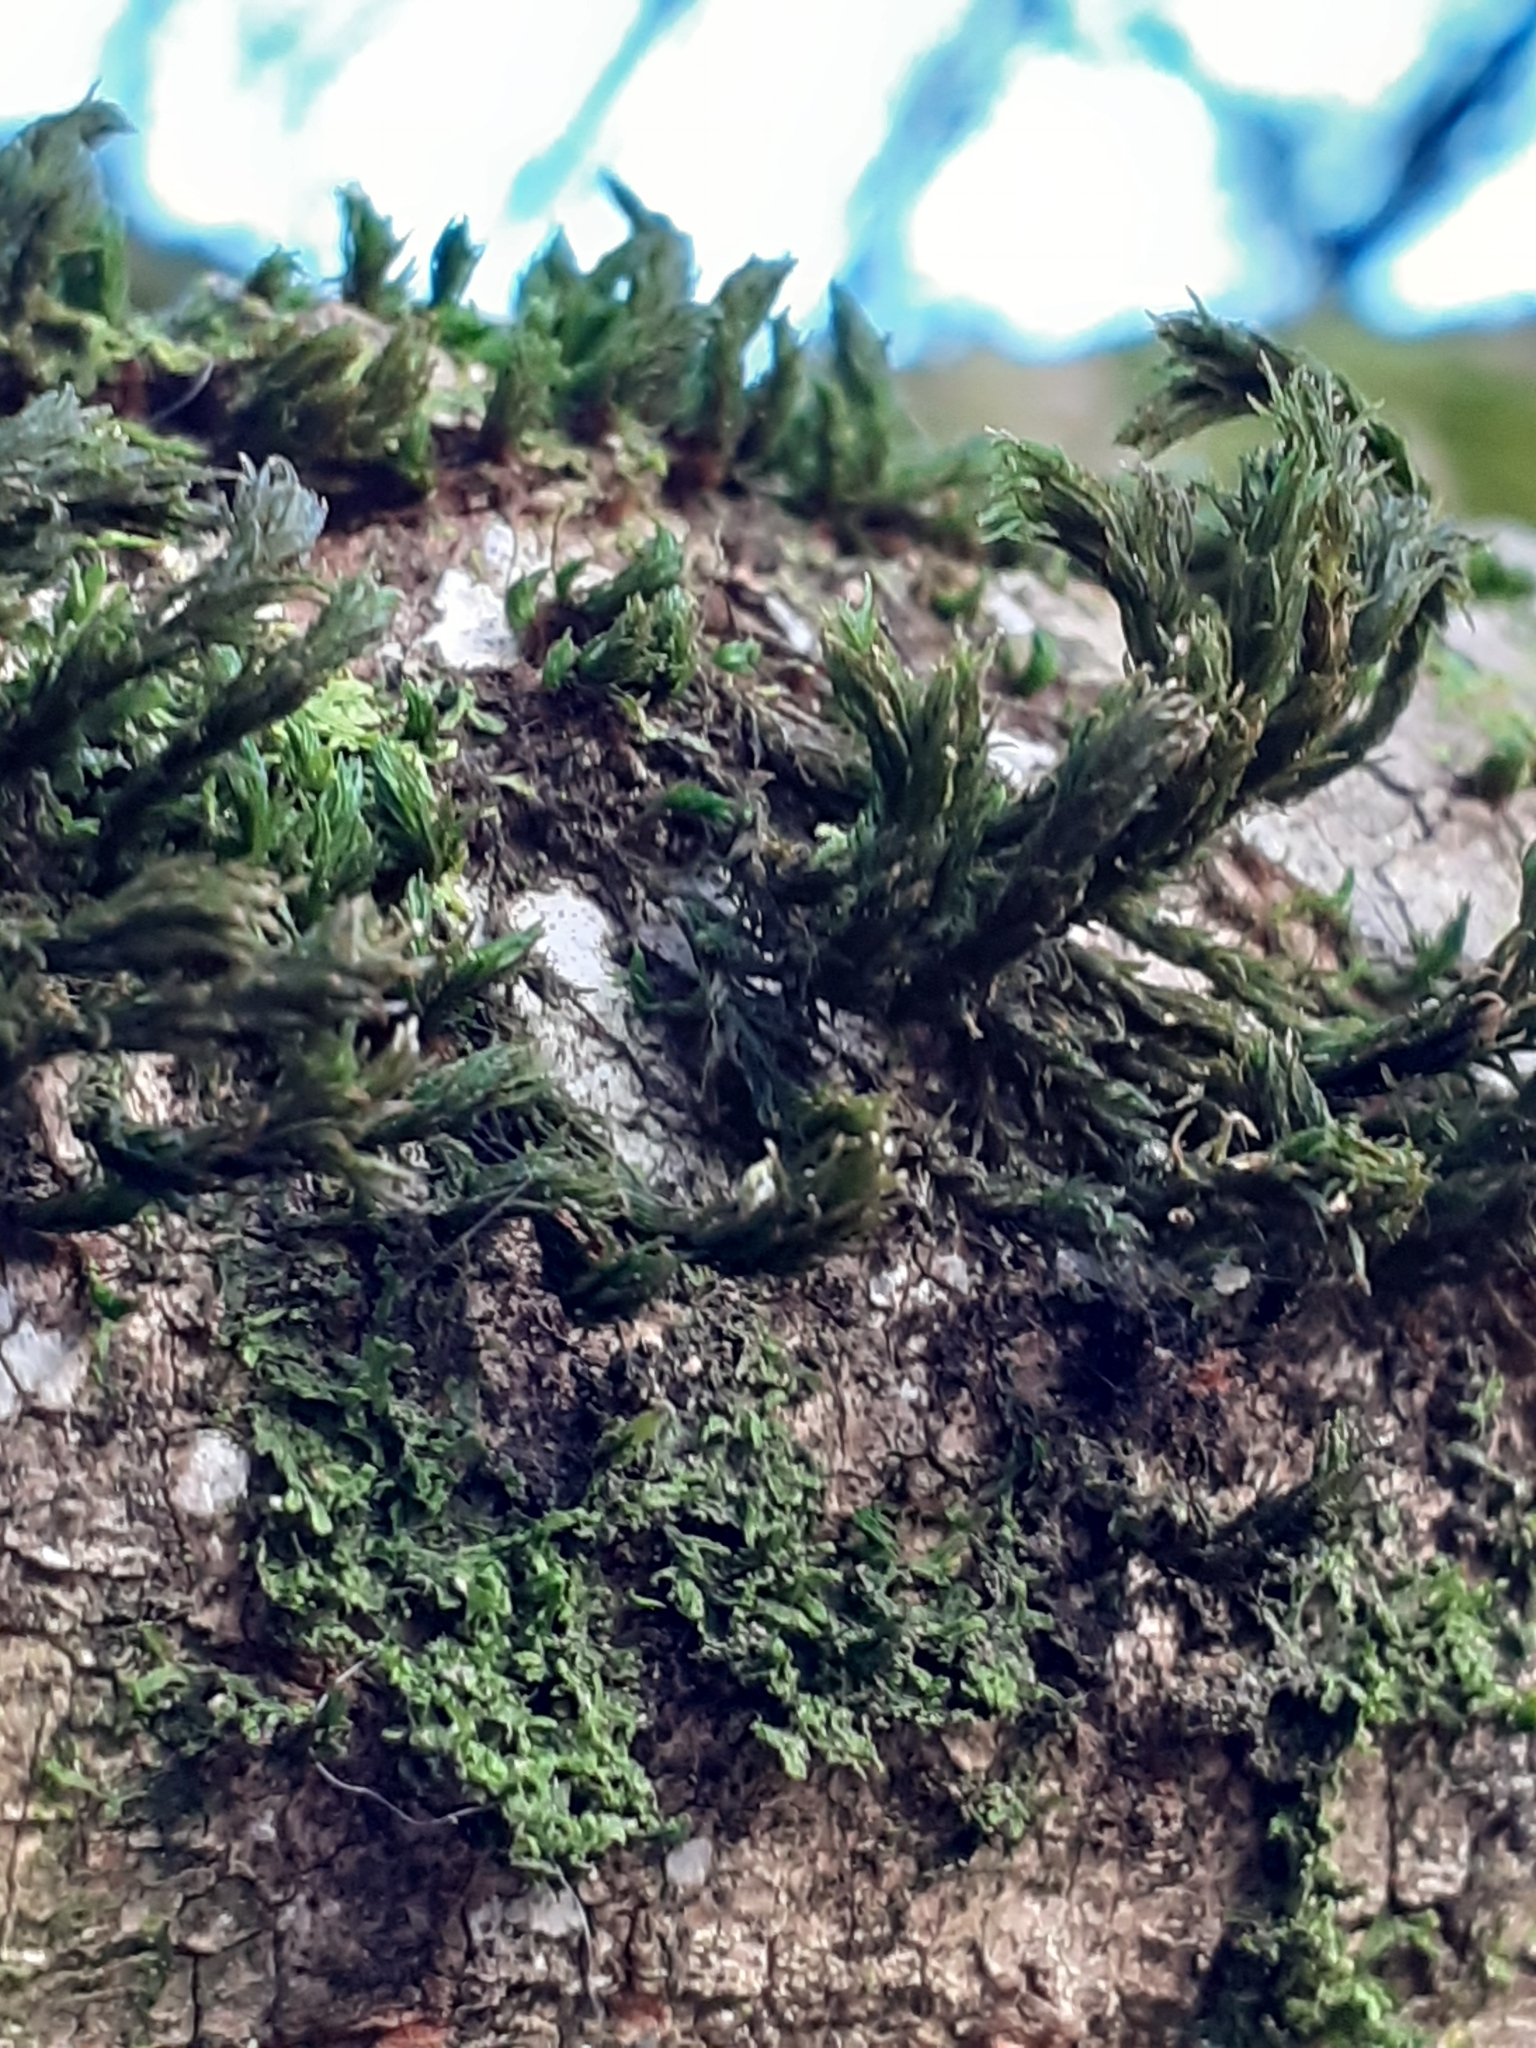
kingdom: Plantae
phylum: Bryophyta
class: Bryopsida
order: Orthotrichales
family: Orthotrichaceae
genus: Pulvigera
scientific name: Pulvigera lyellii
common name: Lyell's bristle-moss
